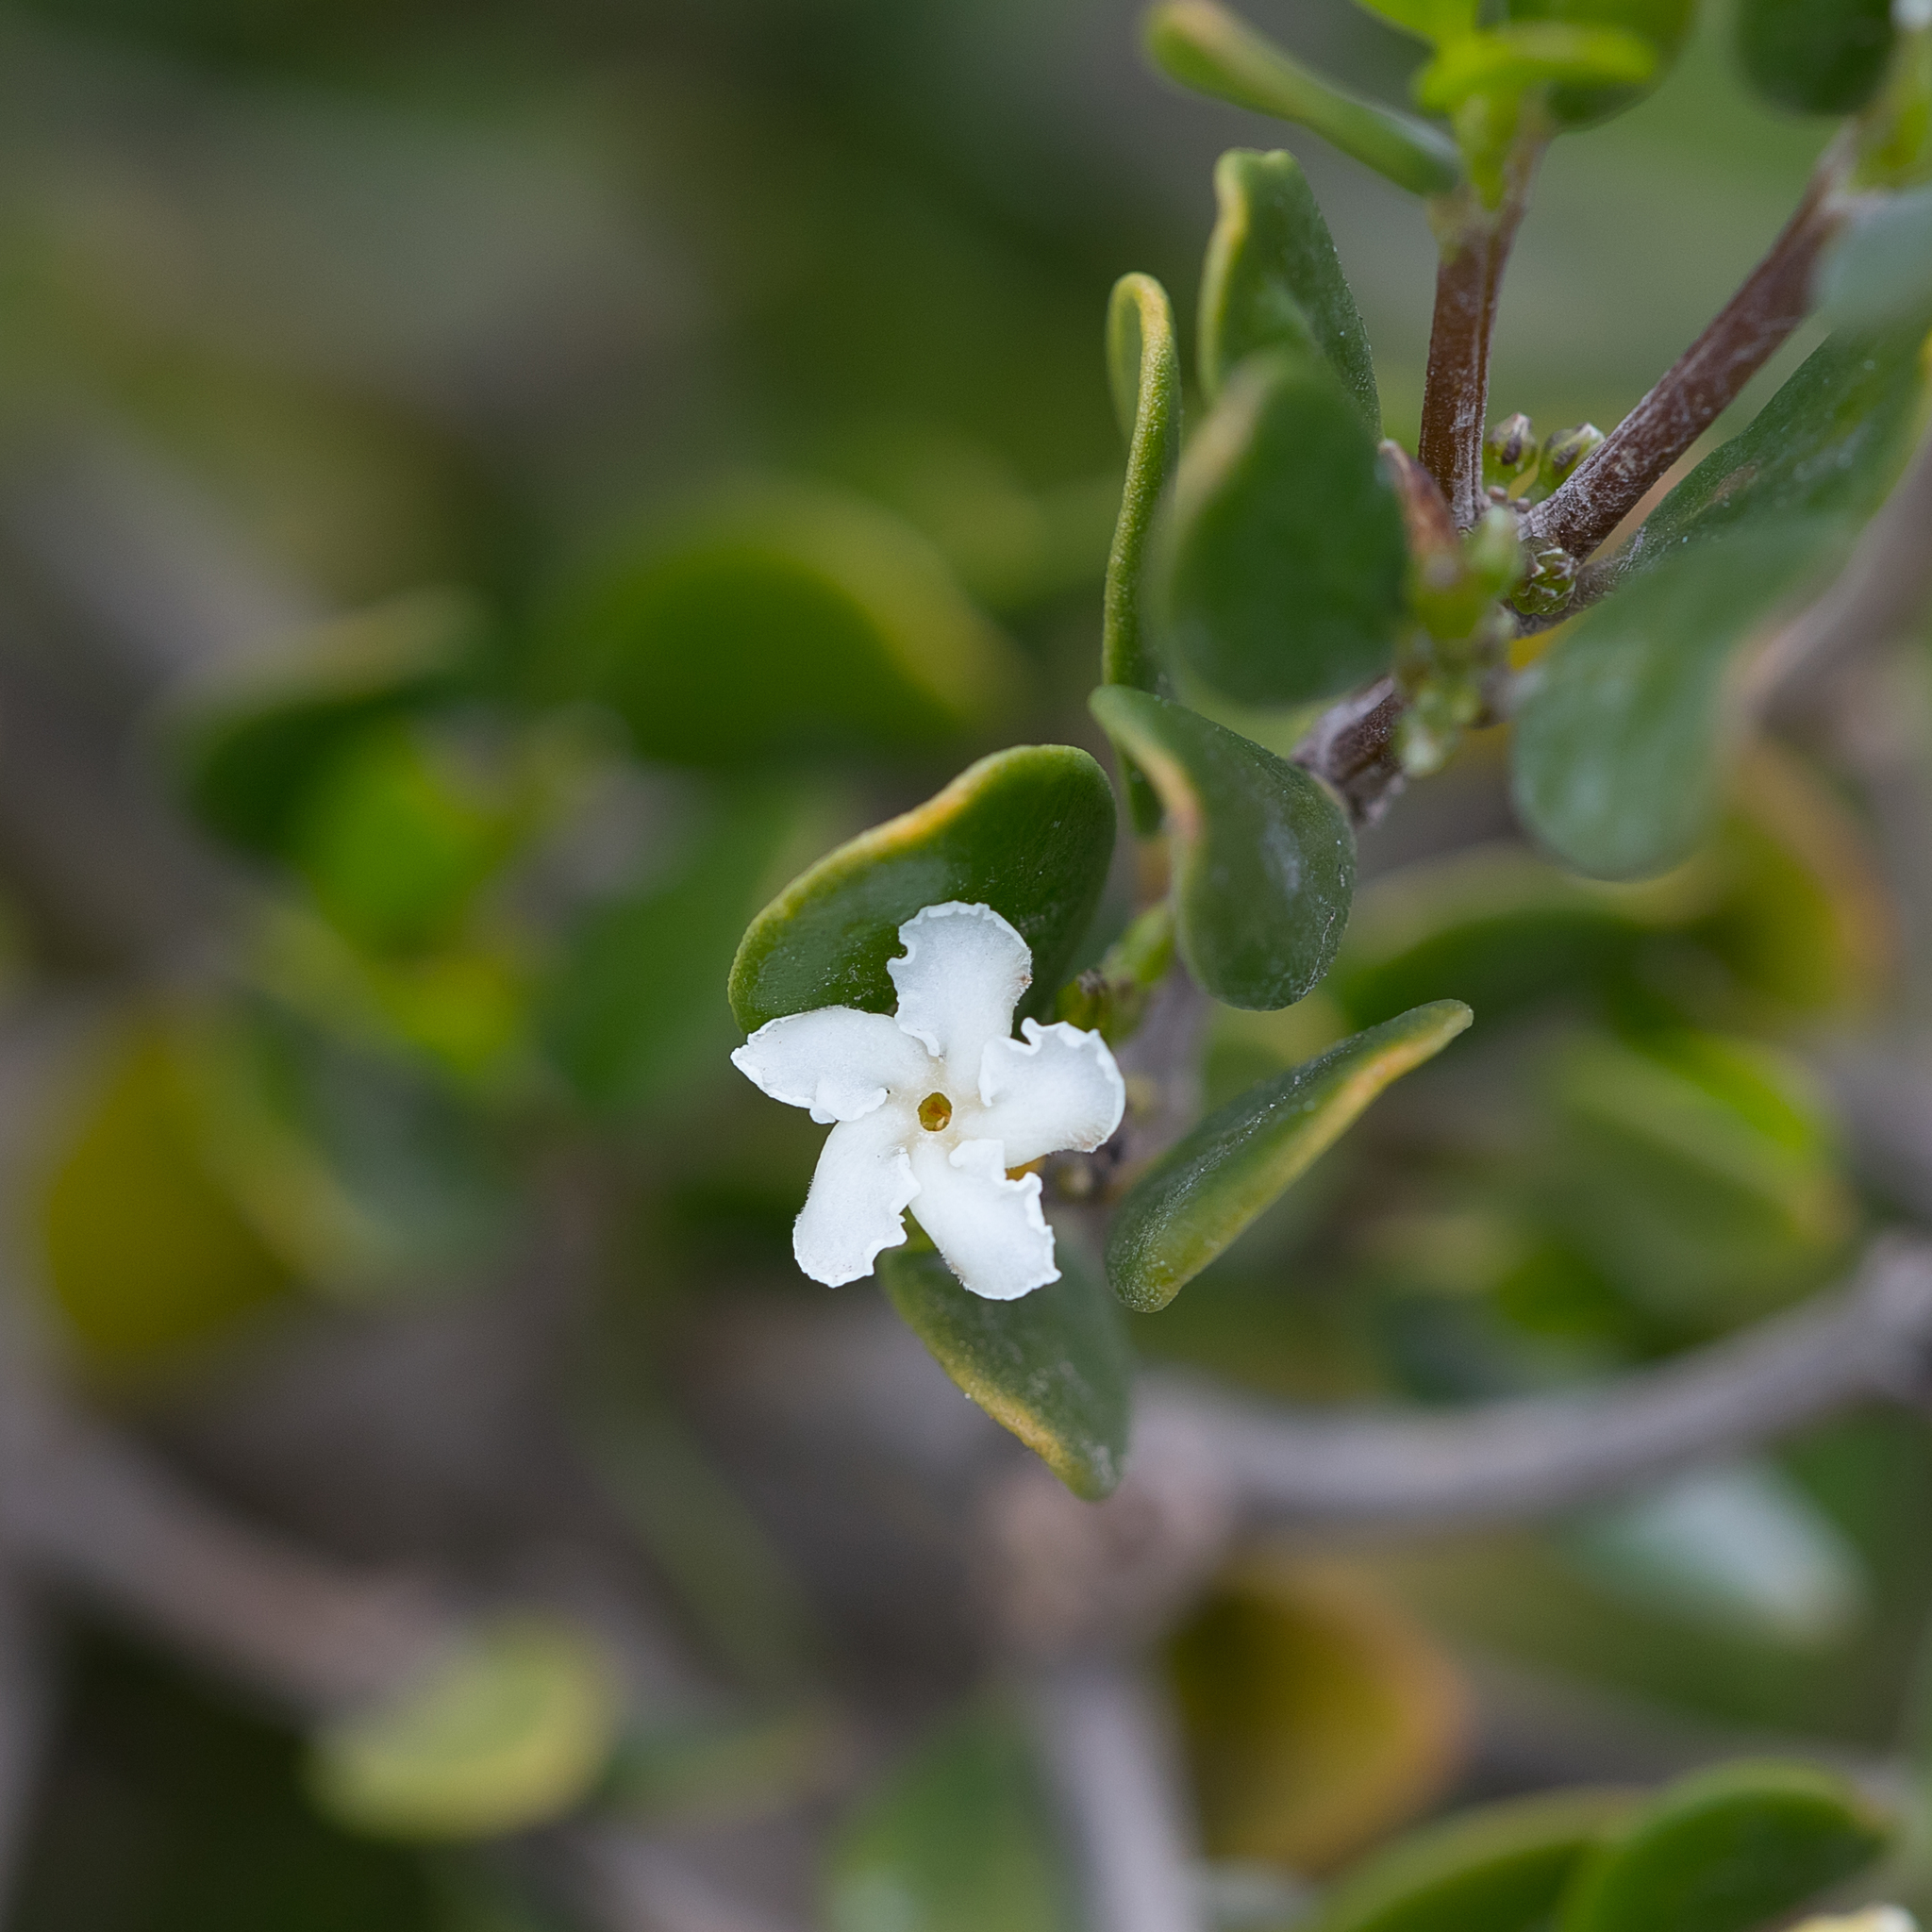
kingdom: Plantae
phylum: Tracheophyta
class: Magnoliopsida
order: Gentianales
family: Apocynaceae
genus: Alyxia
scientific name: Alyxia buxifolia
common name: Dysentery-bush
